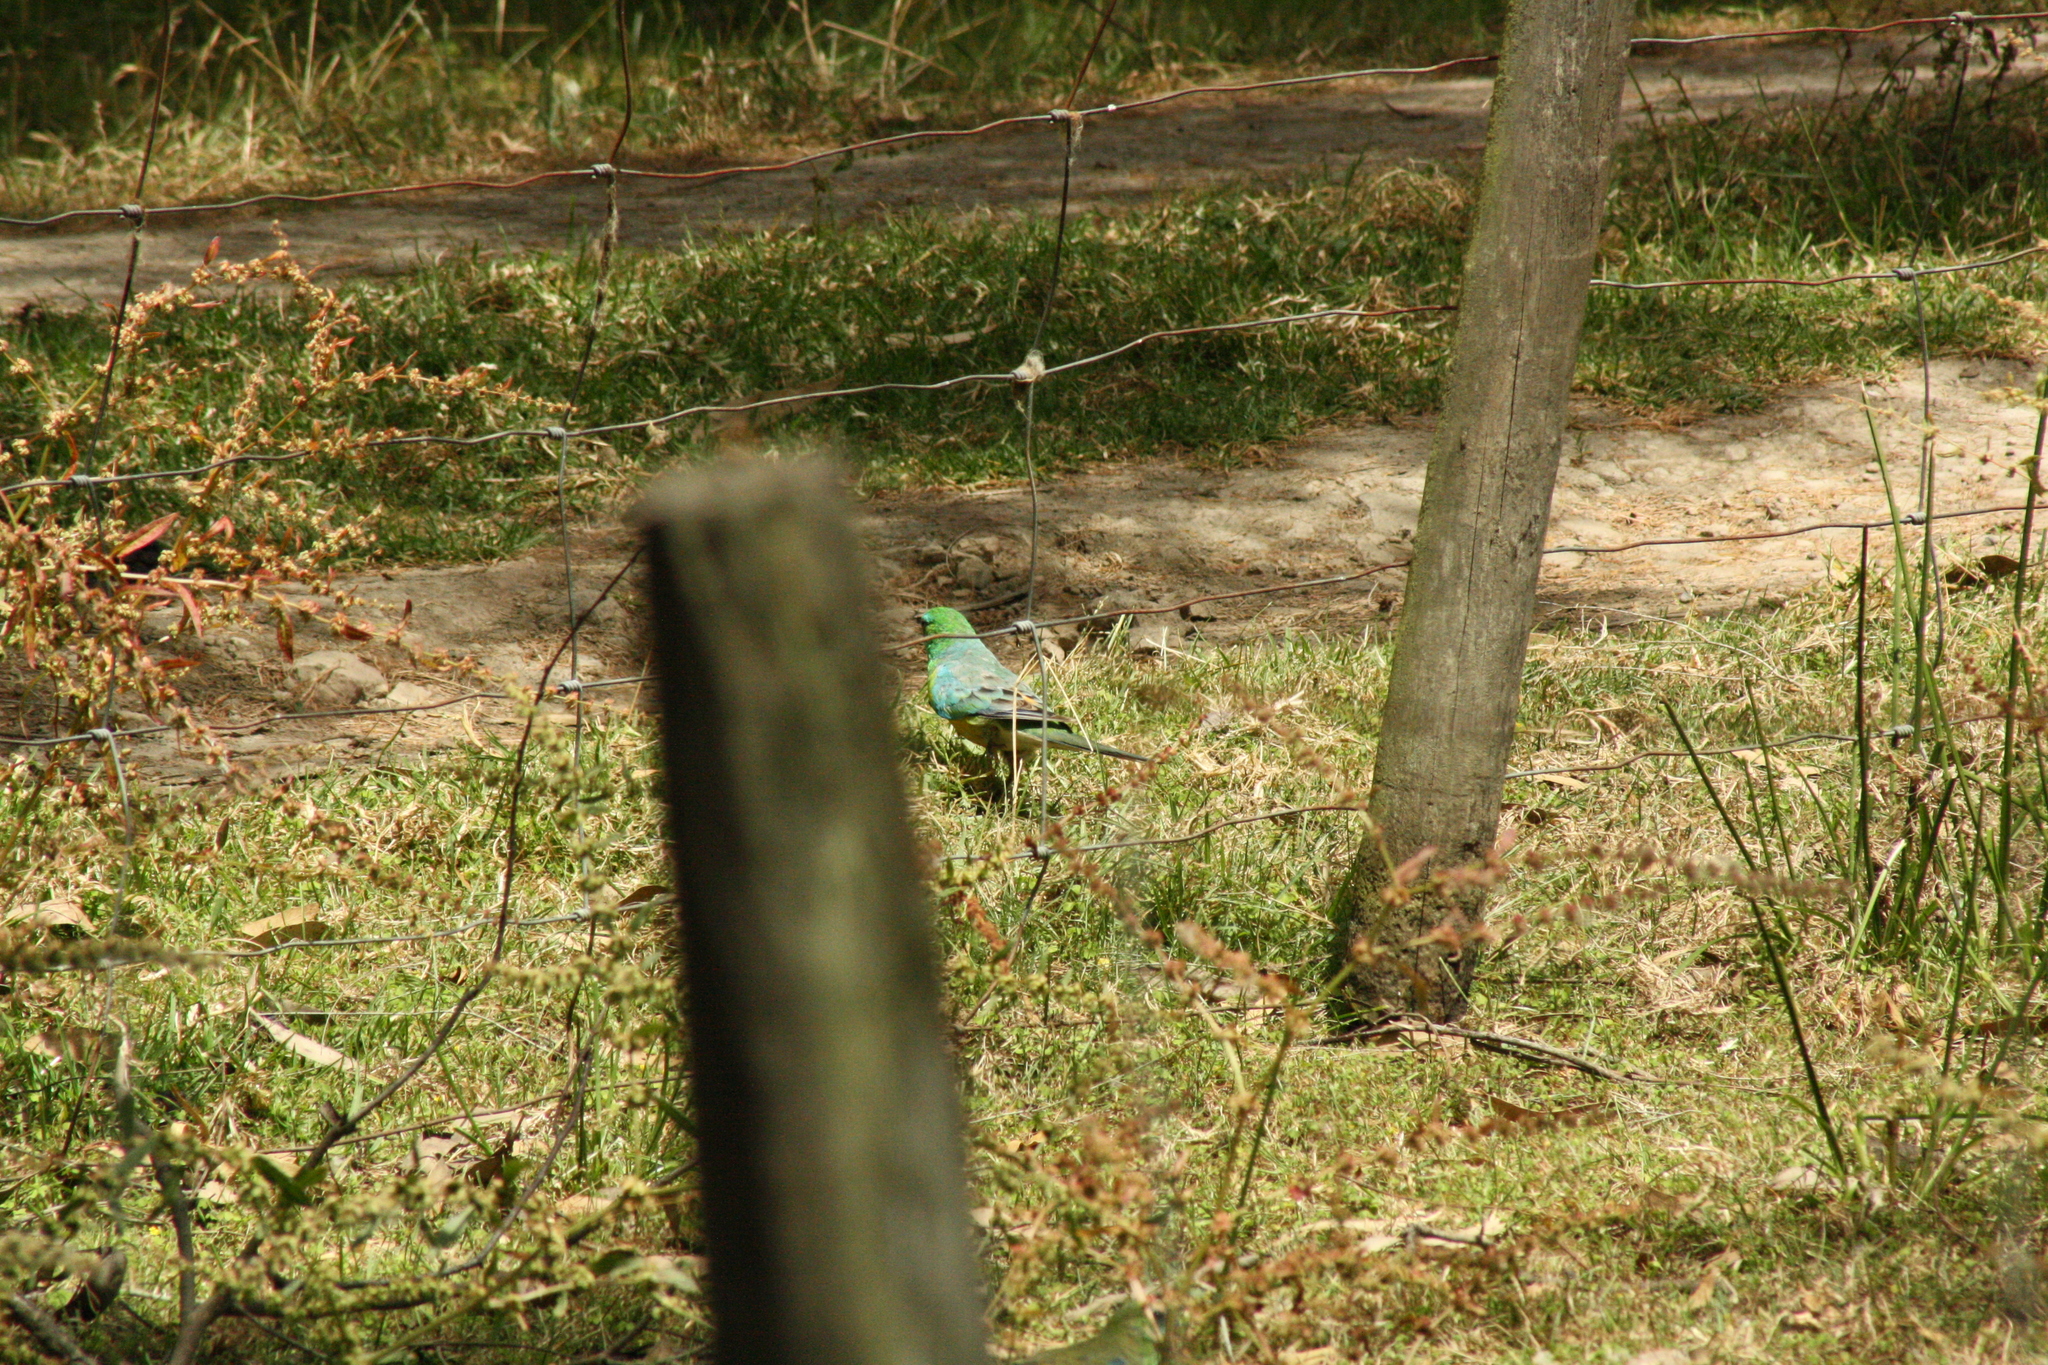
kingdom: Animalia
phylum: Chordata
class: Aves
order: Psittaciformes
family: Psittacidae
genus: Psephotus
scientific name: Psephotus haematonotus
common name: Red-rumped parrot
